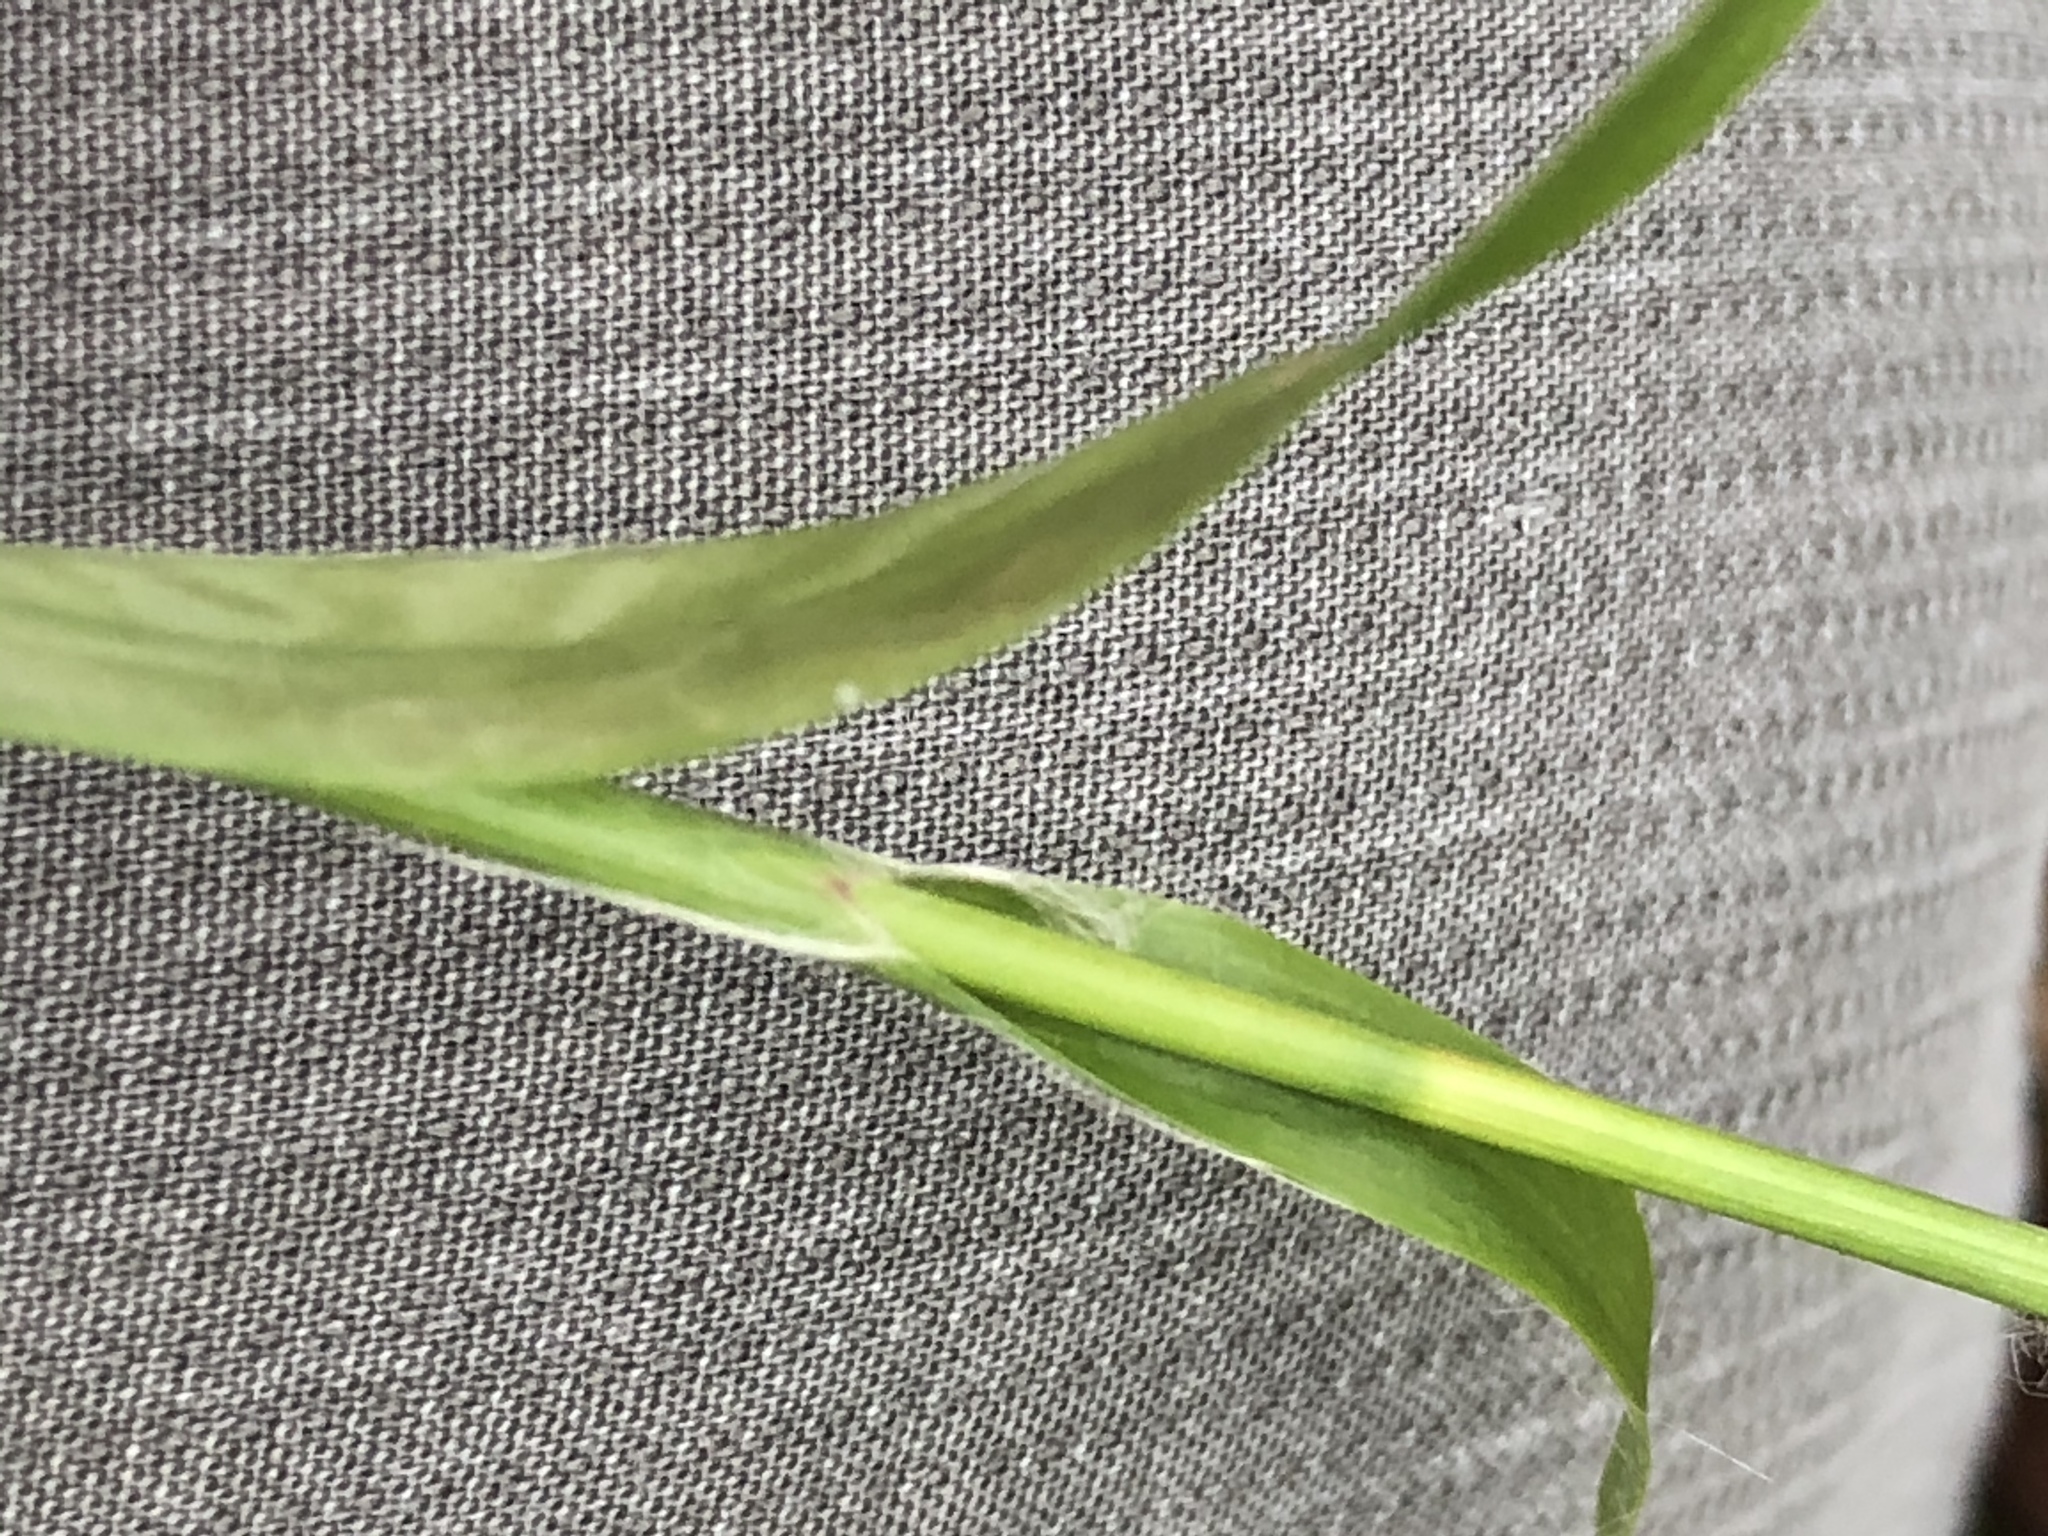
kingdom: Plantae
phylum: Tracheophyta
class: Liliopsida
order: Poales
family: Juncaceae
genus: Luzula
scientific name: Luzula sylvatica
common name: Great wood-rush
